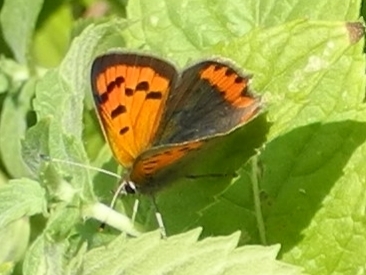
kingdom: Animalia
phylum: Arthropoda
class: Insecta
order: Lepidoptera
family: Lycaenidae
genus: Lycaena
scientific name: Lycaena phlaeas
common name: Small copper
